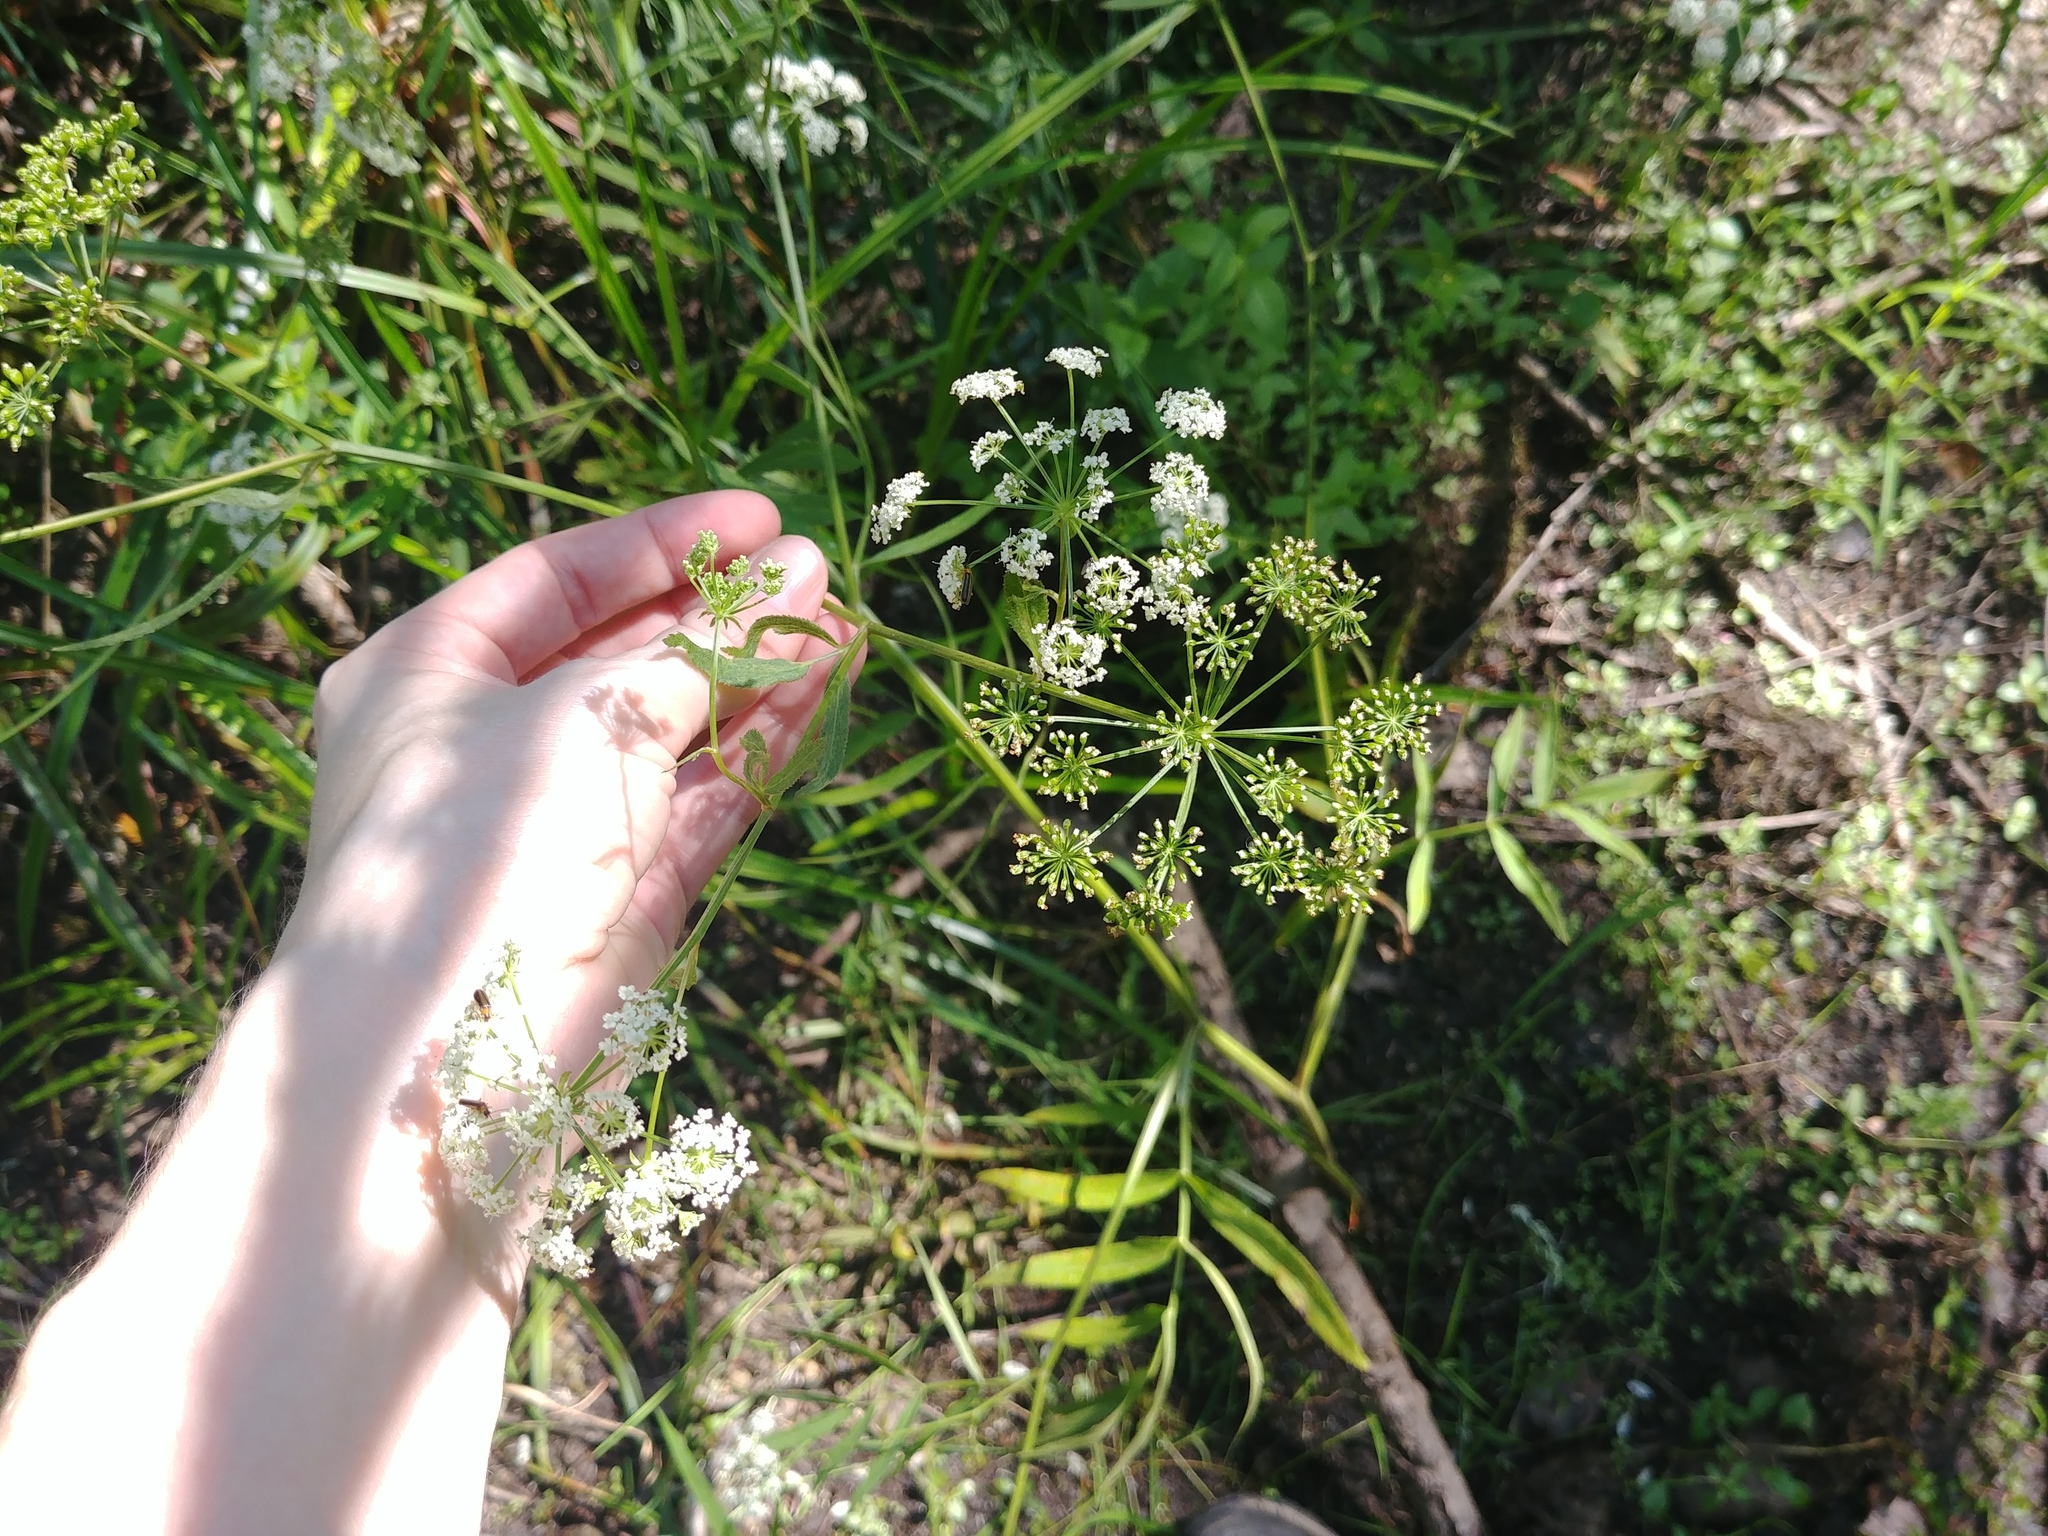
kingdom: Plantae
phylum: Tracheophyta
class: Magnoliopsida
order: Apiales
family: Apiaceae
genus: Sium
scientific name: Sium suave
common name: Hemlock water-parsnip
